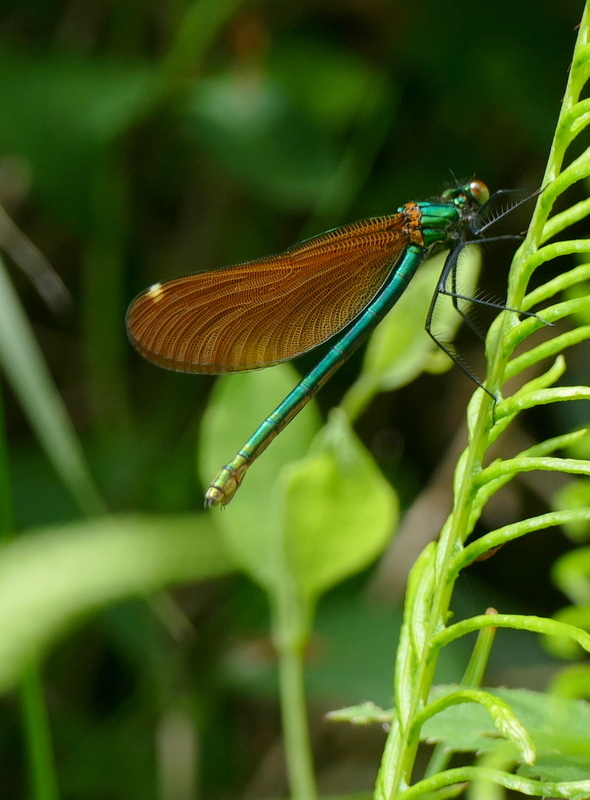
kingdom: Animalia
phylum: Arthropoda
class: Insecta
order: Odonata
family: Calopterygidae
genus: Calopteryx
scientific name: Calopteryx virgo
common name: Beautiful demoiselle
